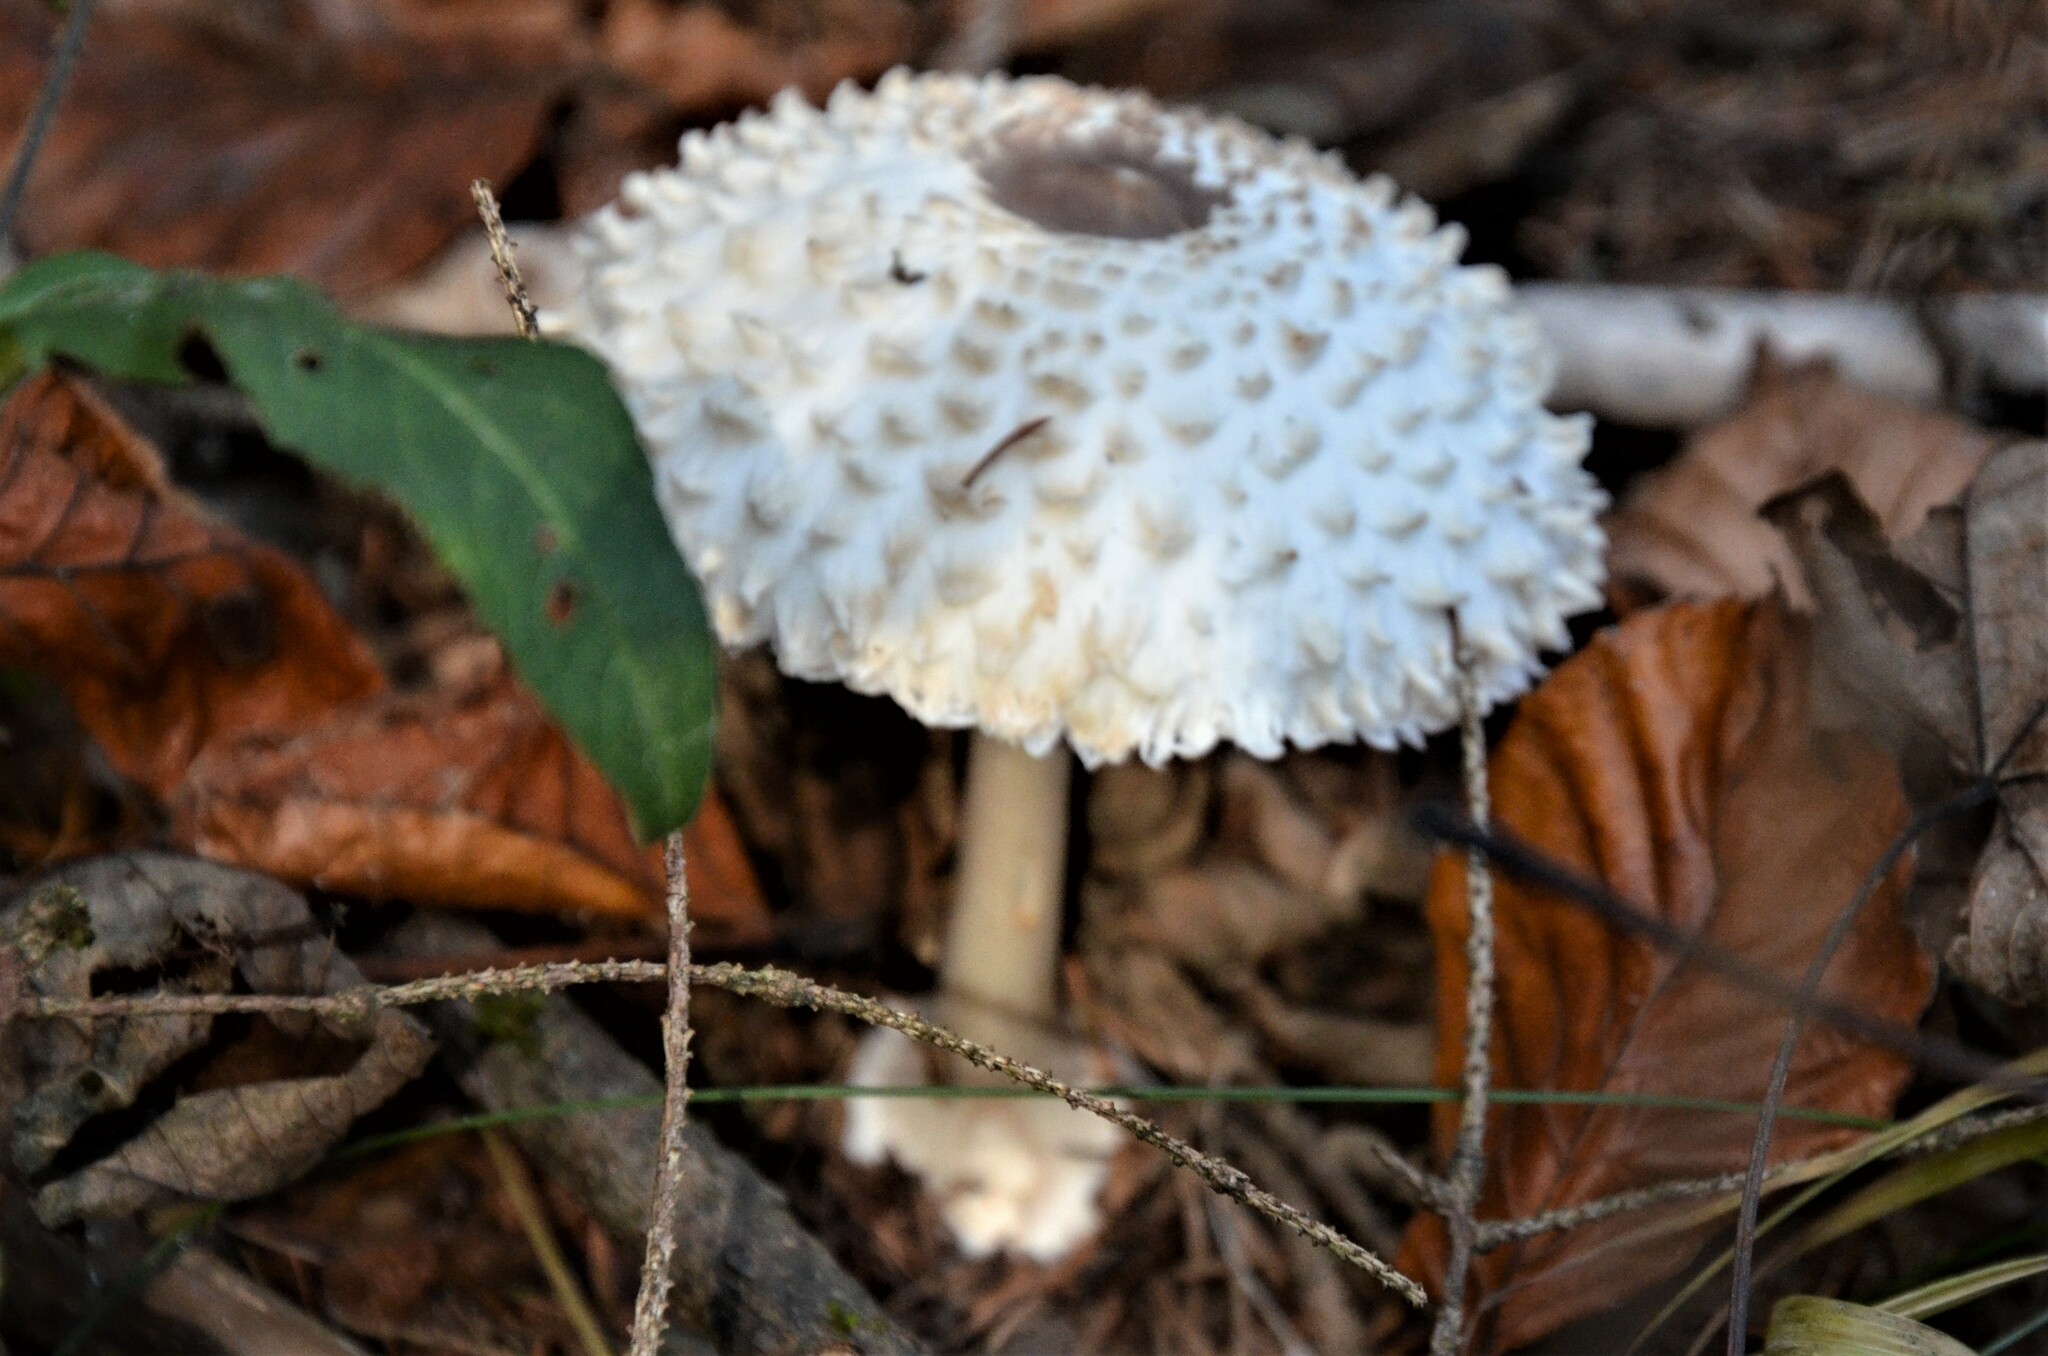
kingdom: Fungi
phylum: Basidiomycota
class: Agaricomycetes
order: Agaricales
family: Agaricaceae
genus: Leucoagaricus
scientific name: Leucoagaricus nympharum
